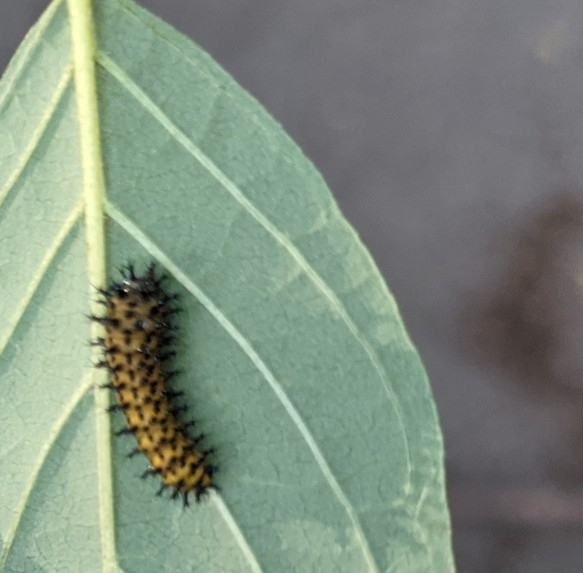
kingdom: Animalia
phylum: Arthropoda
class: Insecta
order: Lepidoptera
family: Saturniidae
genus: Hyalophora
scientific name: Hyalophora cecropia
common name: Cecropia silkmoth
